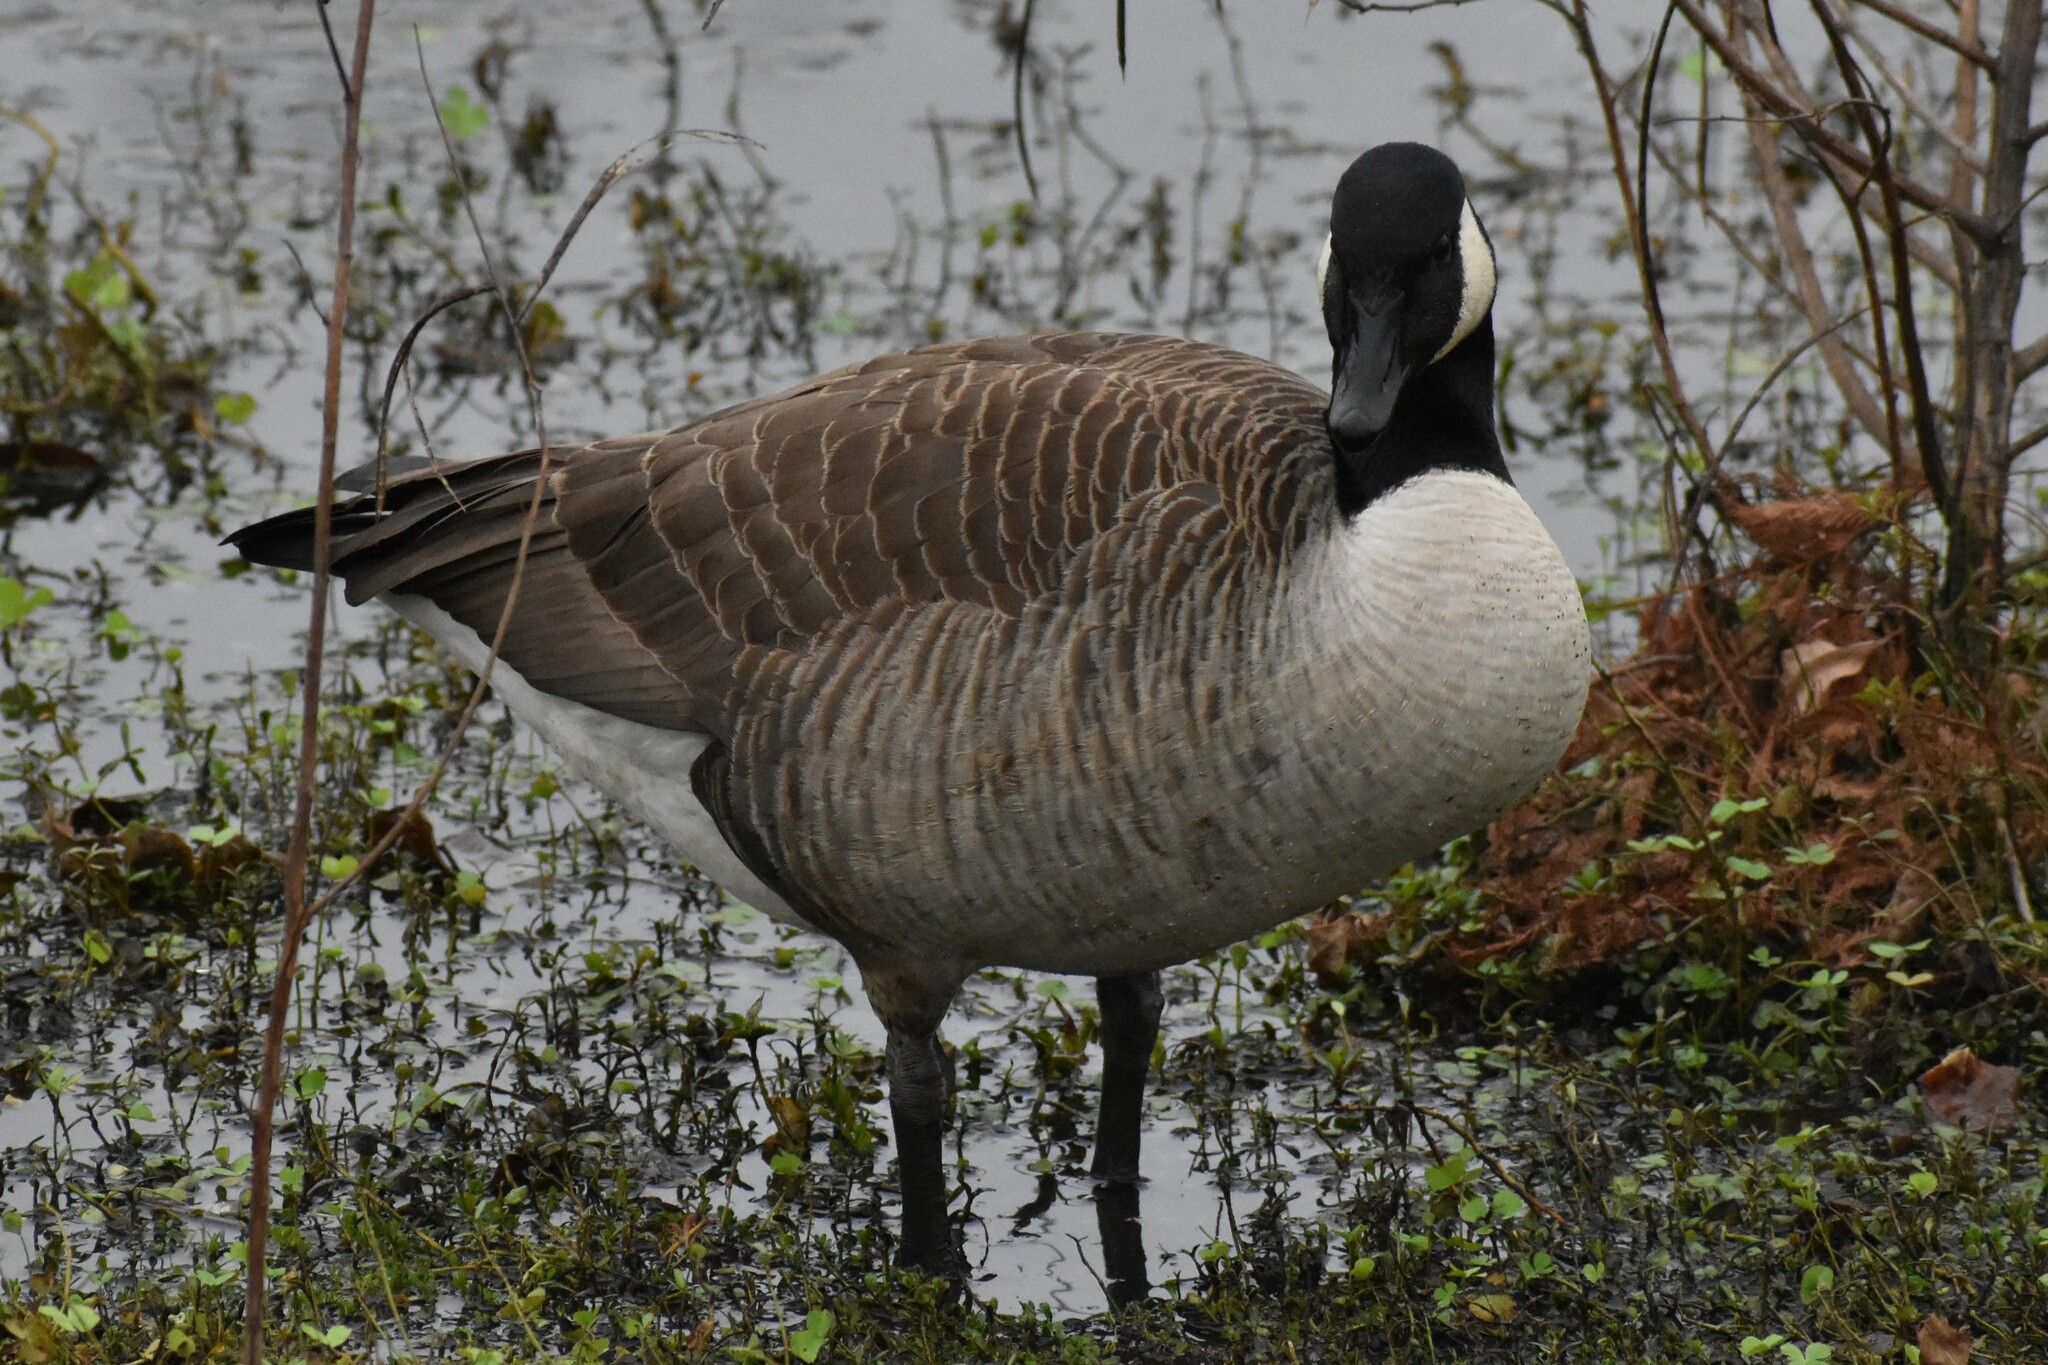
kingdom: Animalia
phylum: Chordata
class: Aves
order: Anseriformes
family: Anatidae
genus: Branta
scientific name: Branta canadensis
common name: Canada goose
